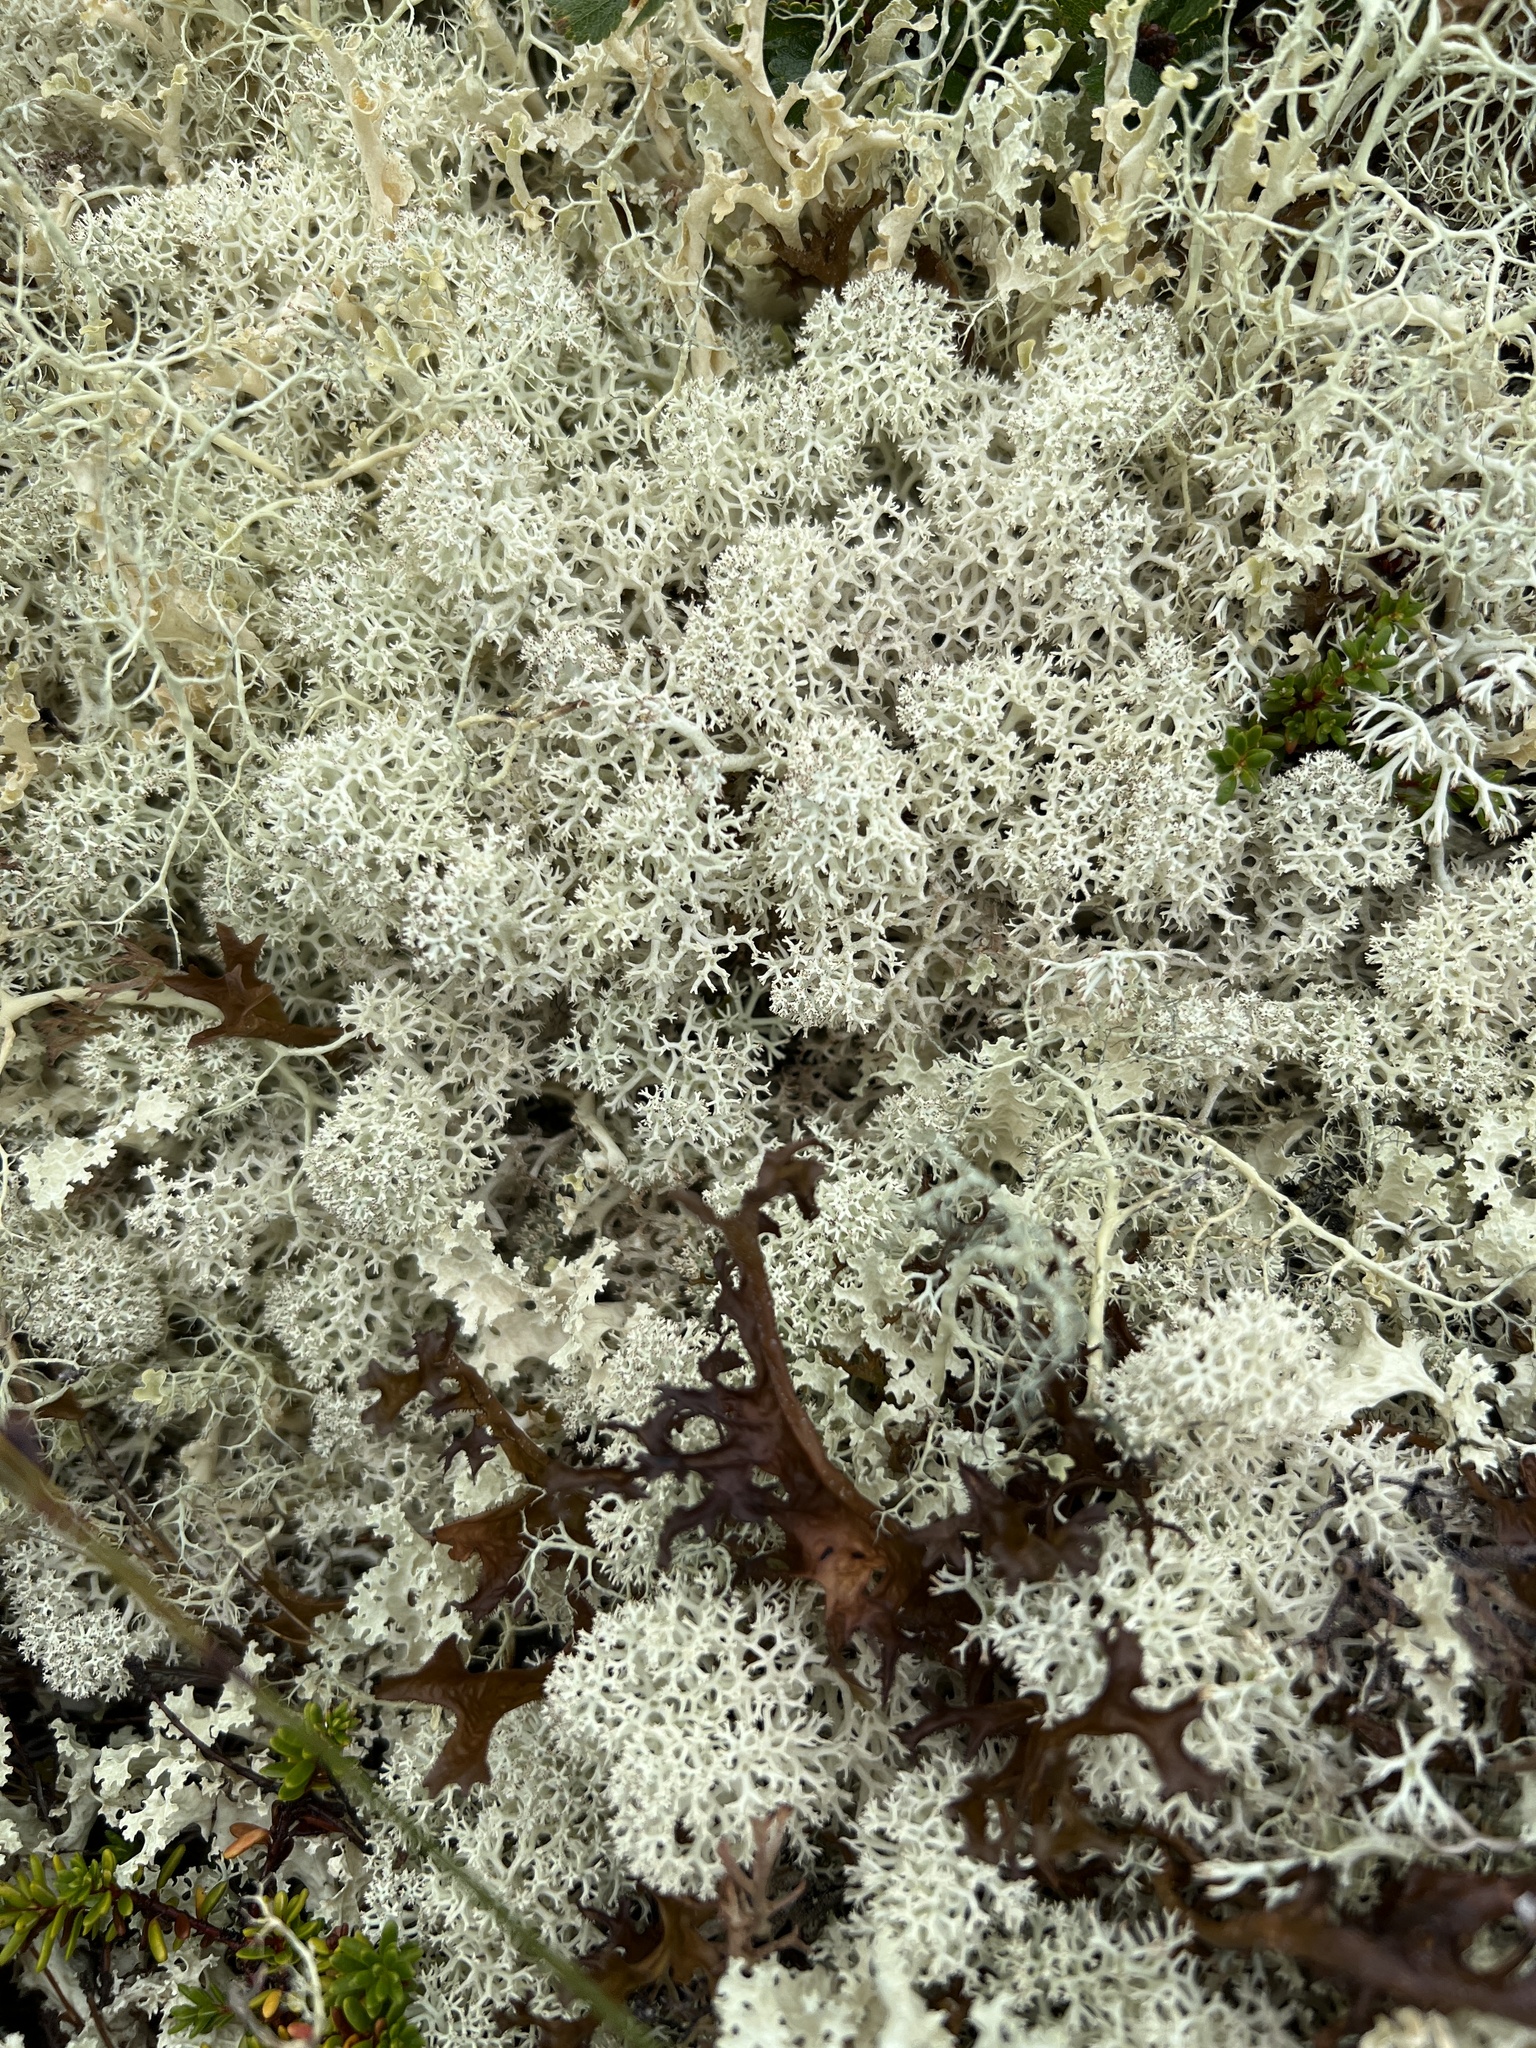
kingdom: Fungi
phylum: Ascomycota
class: Lecanoromycetes
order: Lecanorales
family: Cladoniaceae
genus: Cladonia
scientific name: Cladonia stellaris
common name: Star-tipped reindeer lichen
